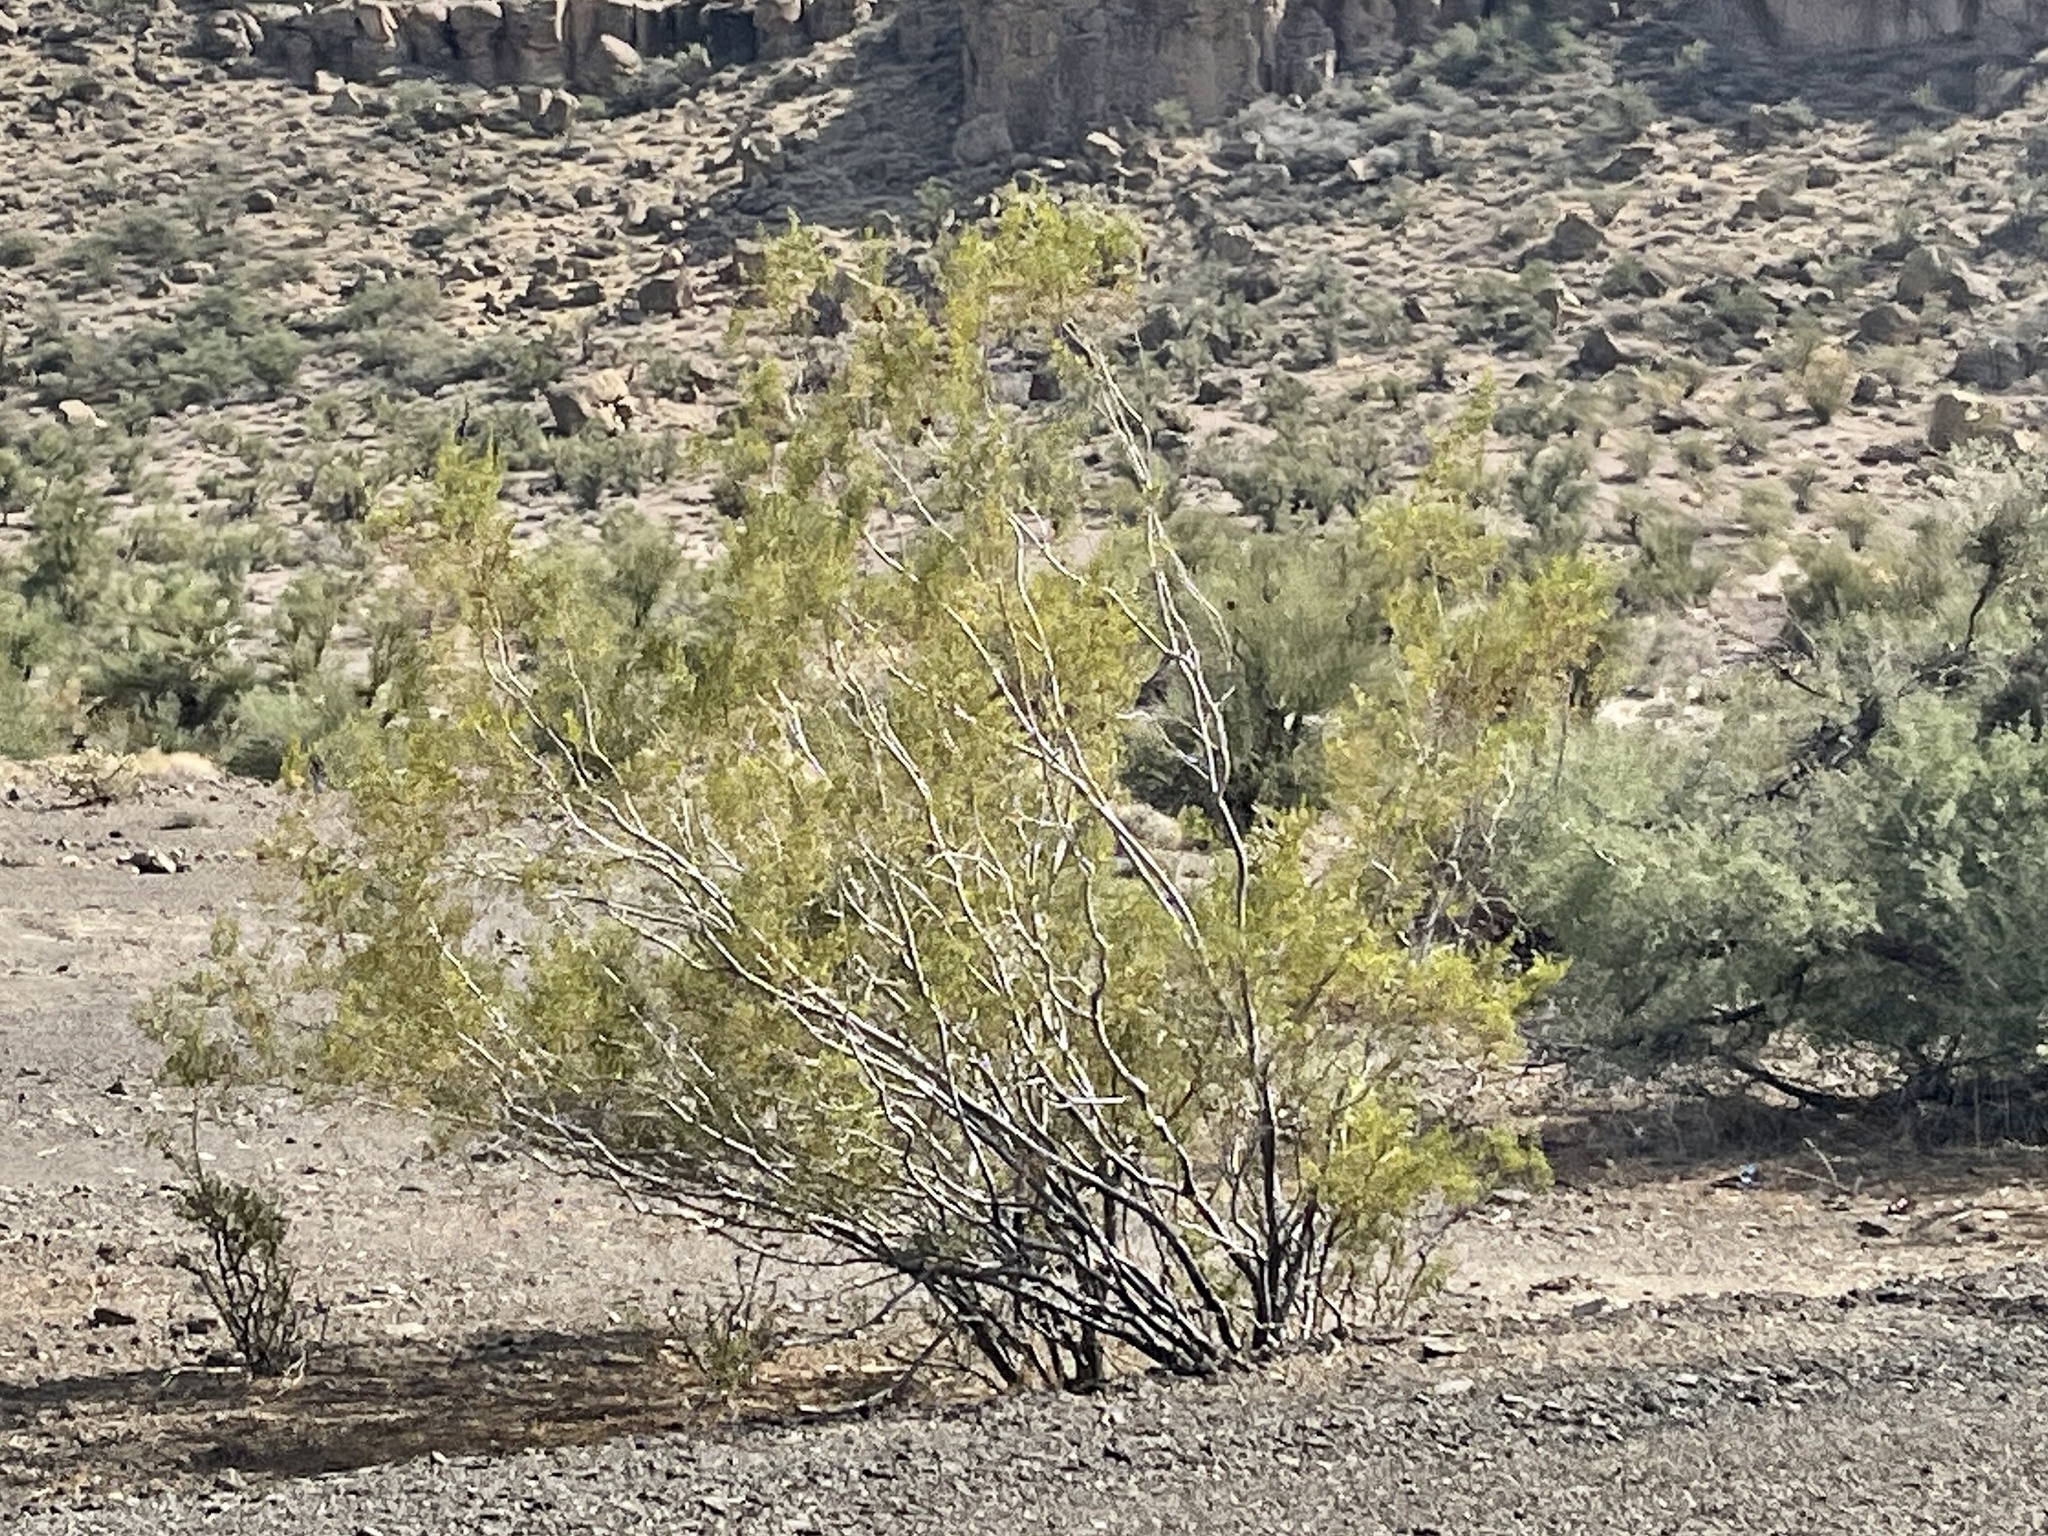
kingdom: Plantae
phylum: Tracheophyta
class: Magnoliopsida
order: Zygophyllales
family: Zygophyllaceae
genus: Larrea
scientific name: Larrea tridentata
